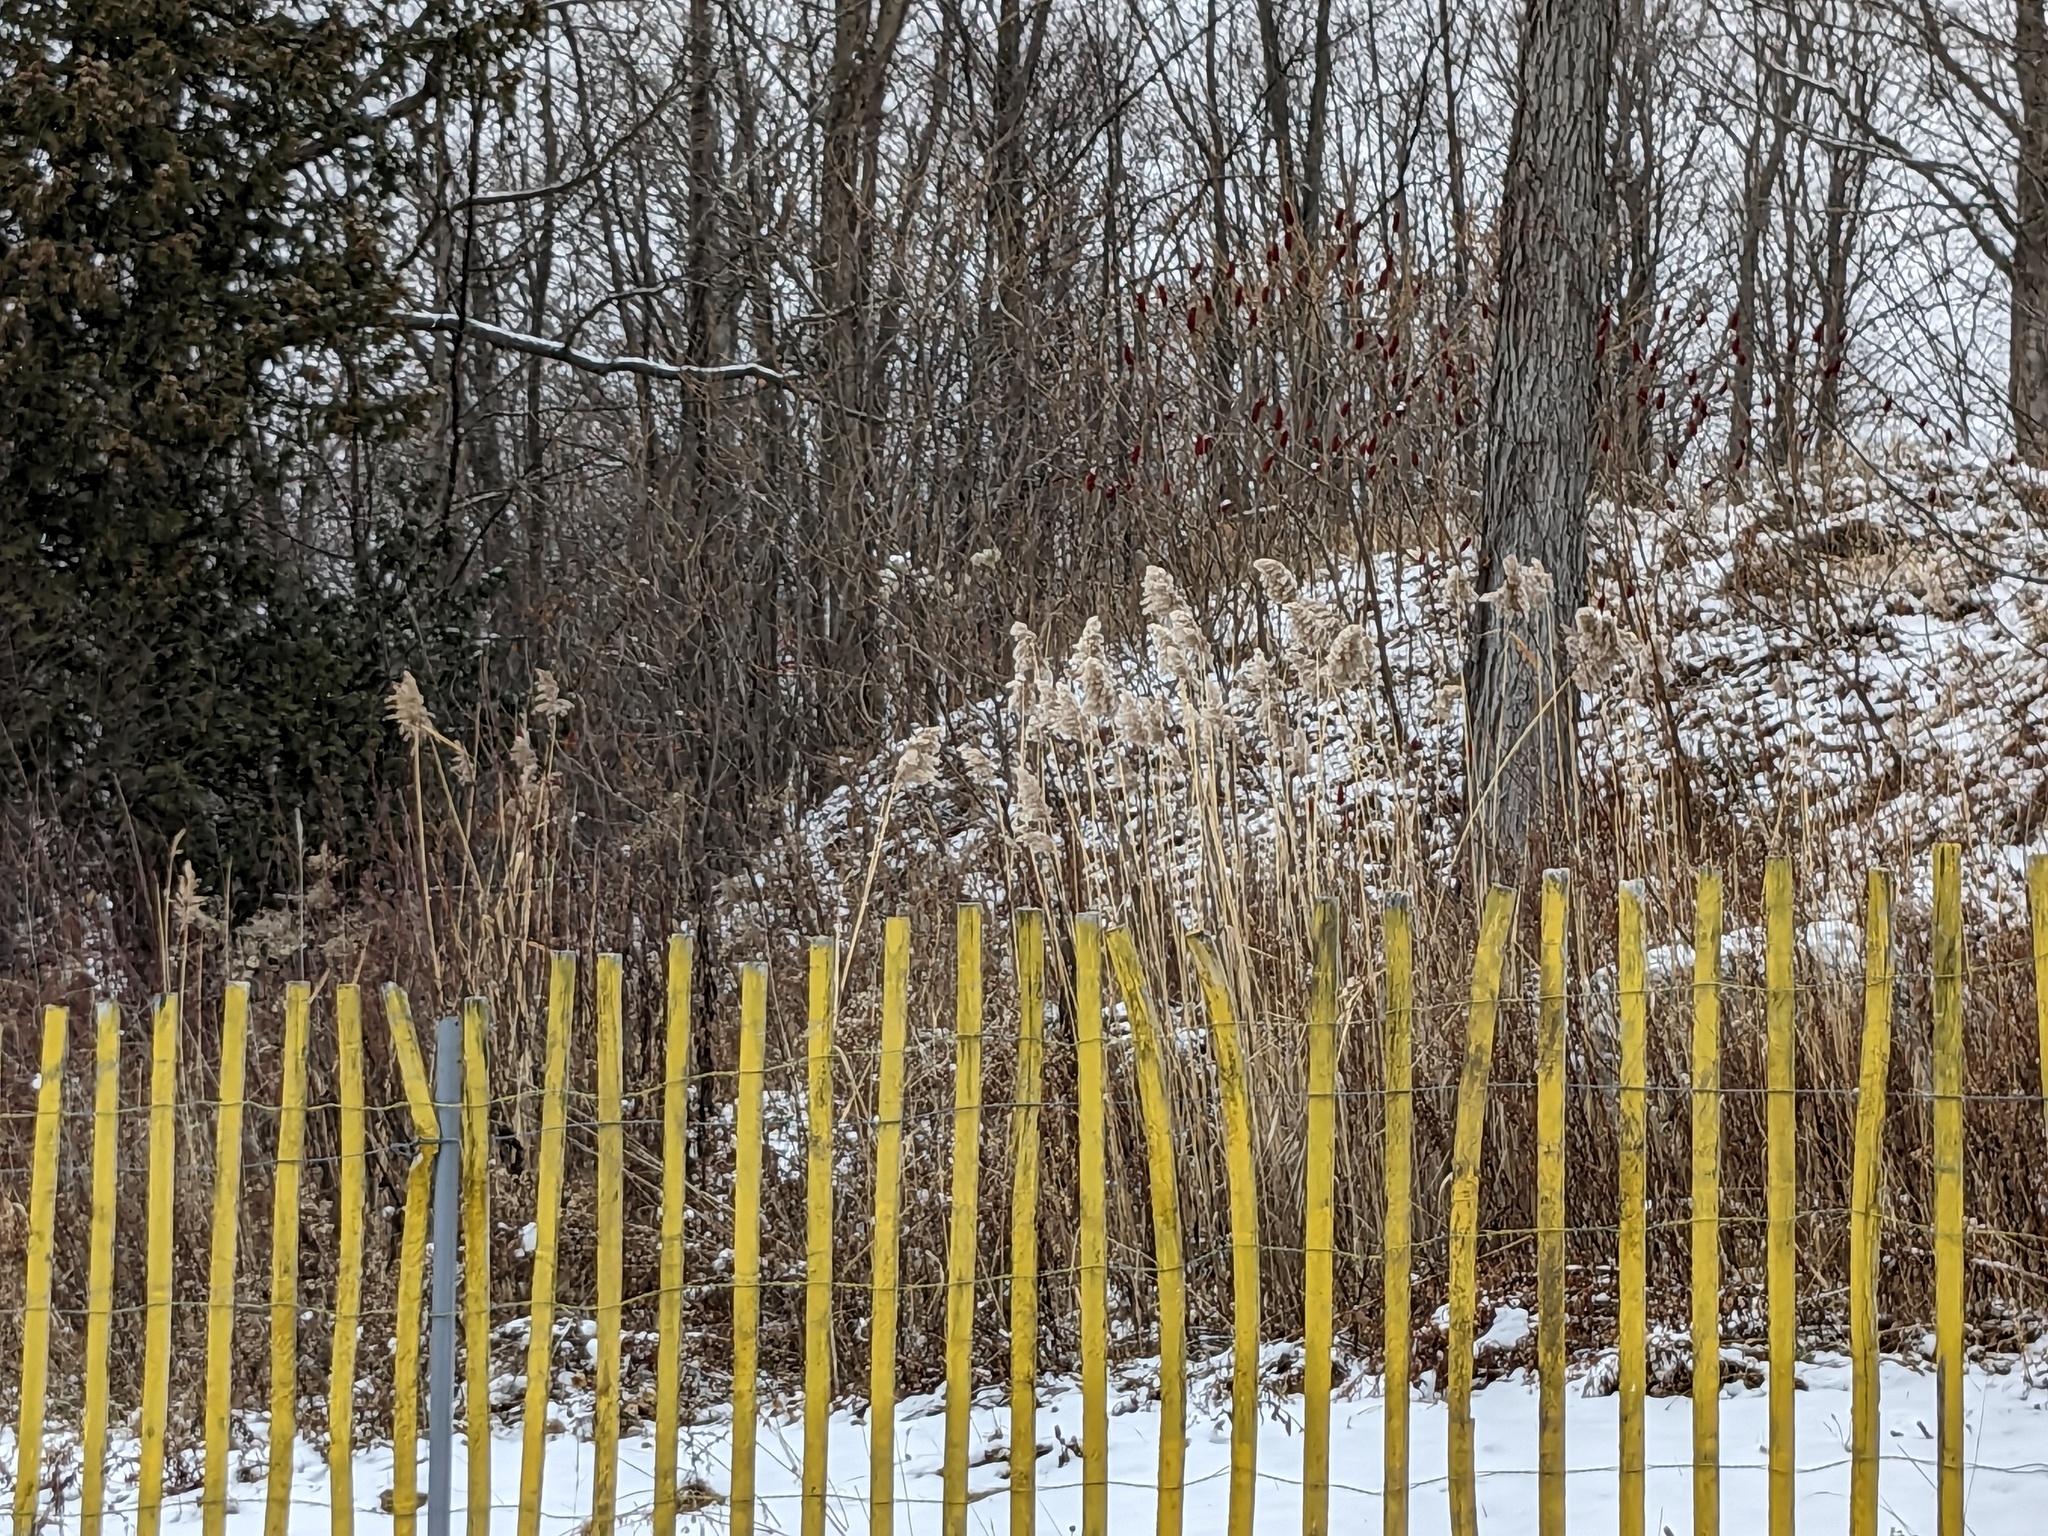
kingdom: Plantae
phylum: Tracheophyta
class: Liliopsida
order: Poales
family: Poaceae
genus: Phragmites
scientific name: Phragmites australis
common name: Common reed
